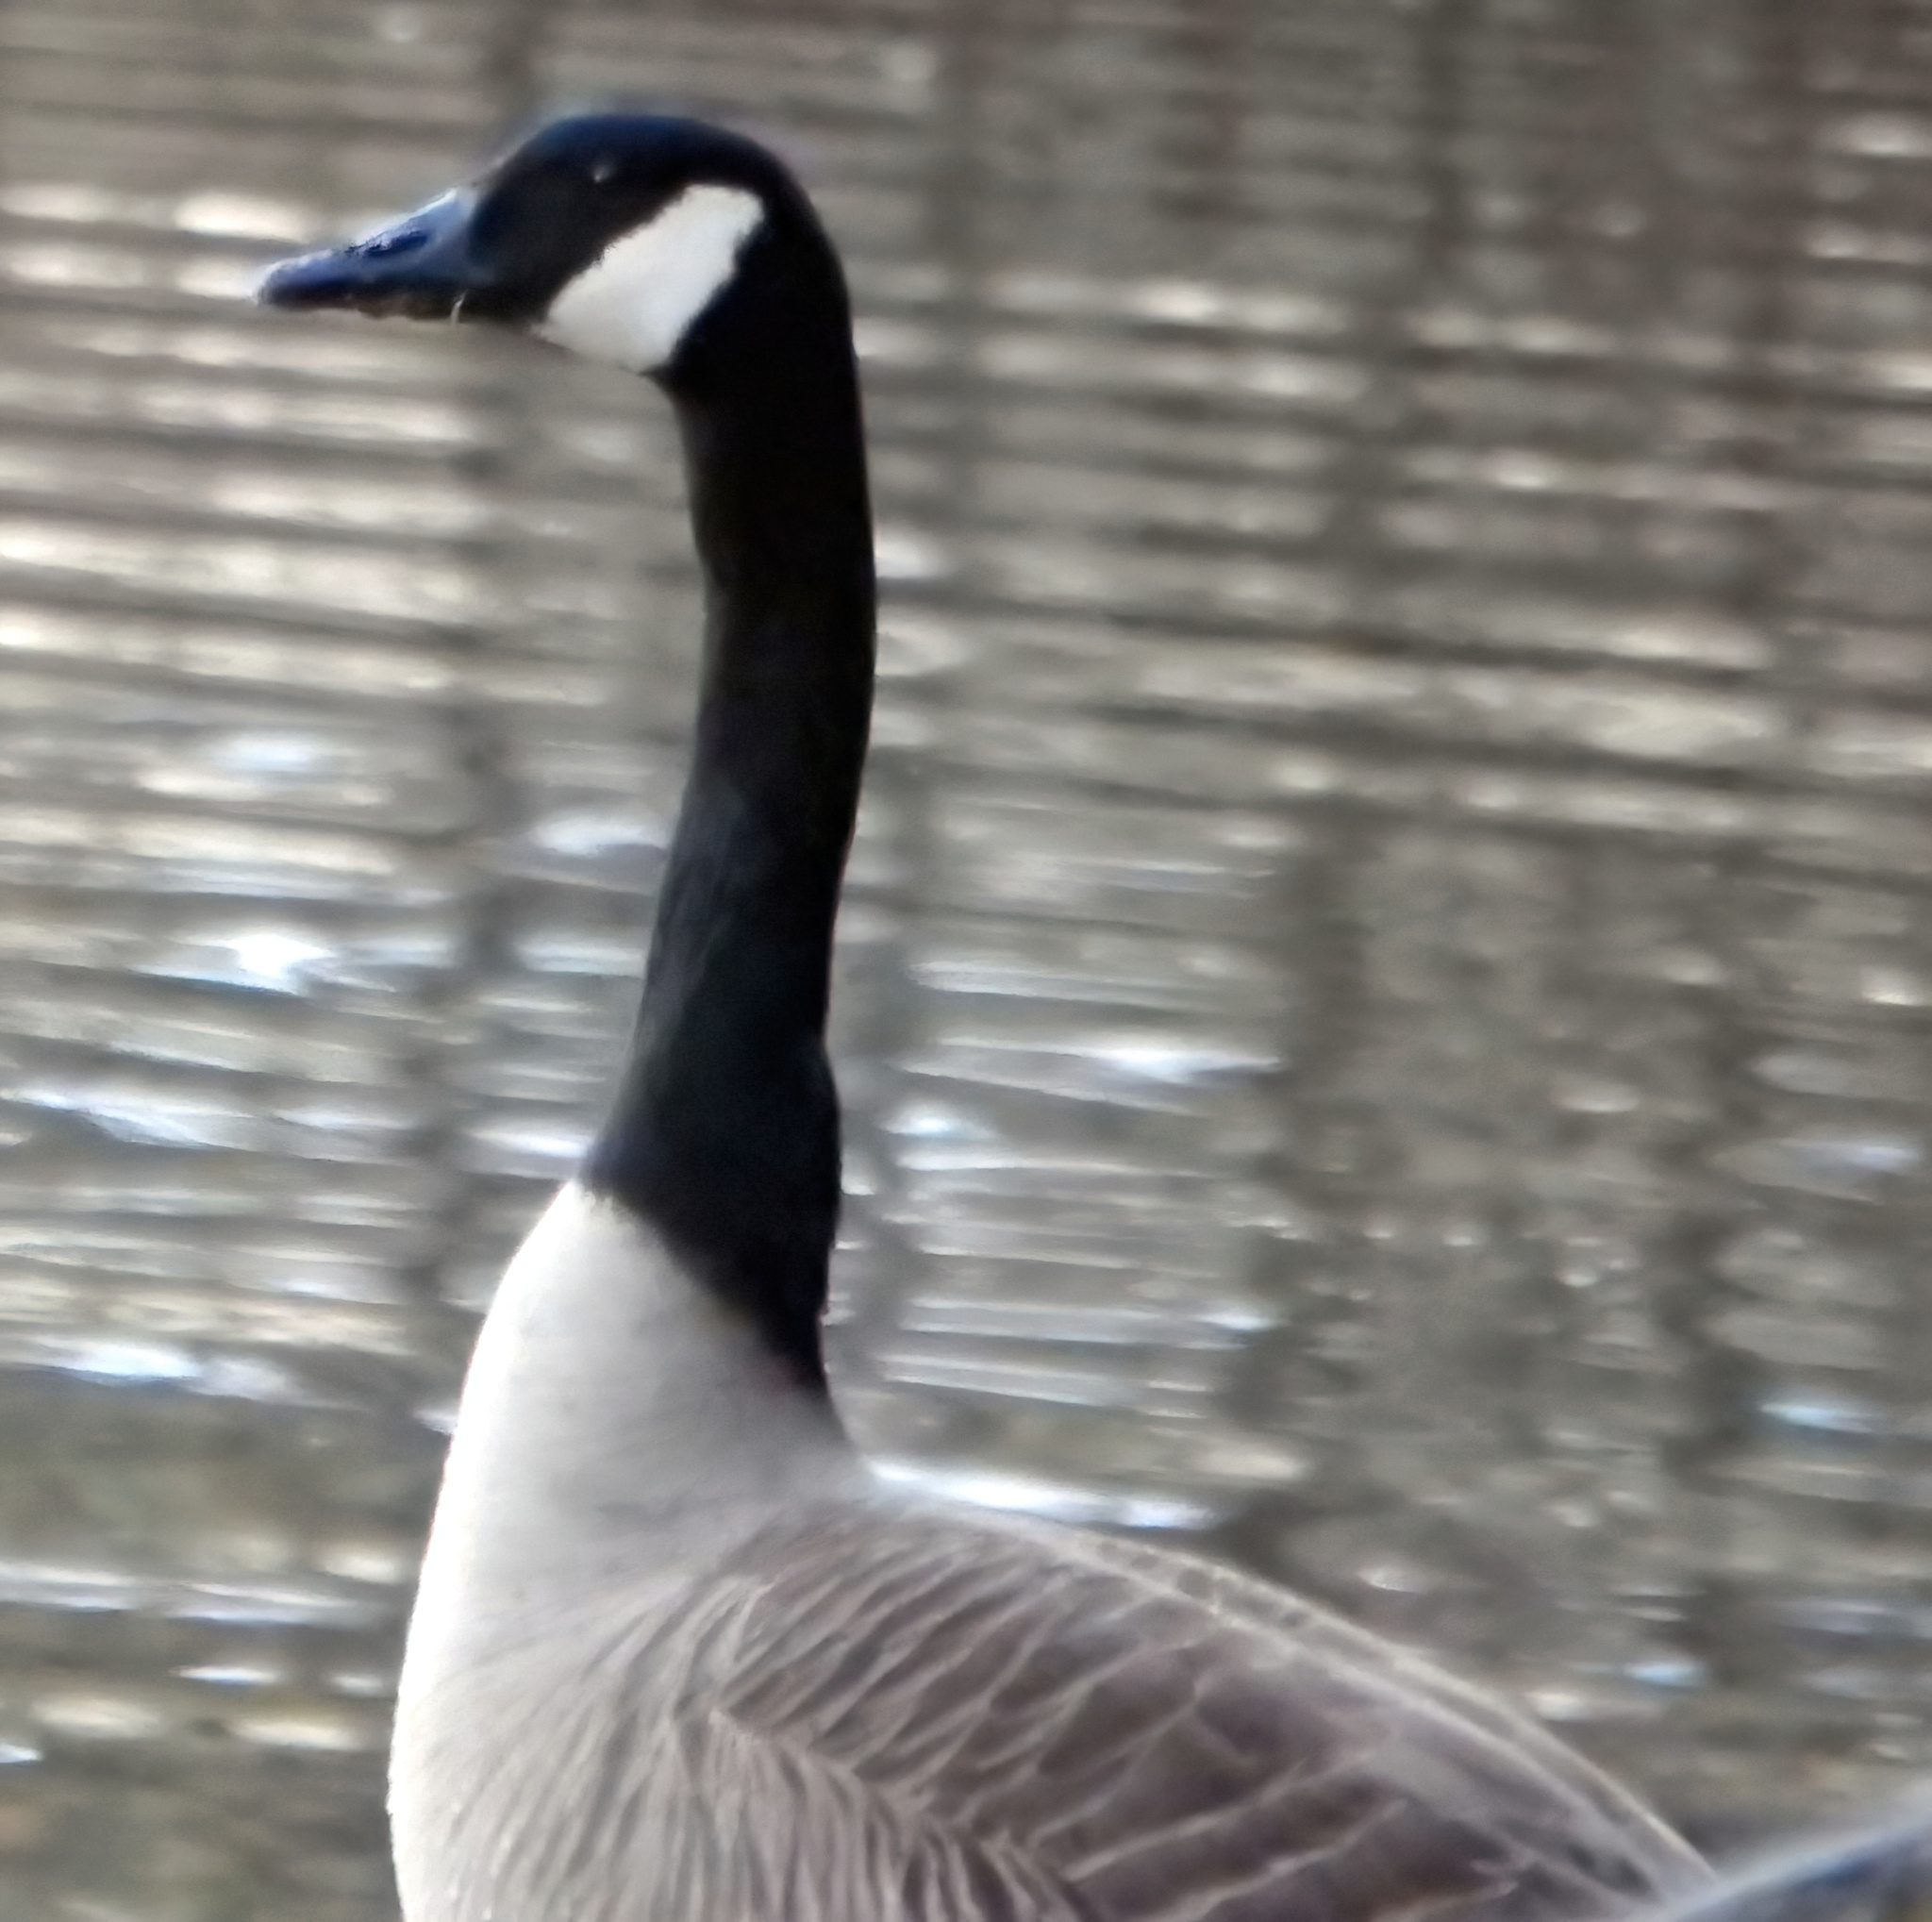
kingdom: Animalia
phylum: Chordata
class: Aves
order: Anseriformes
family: Anatidae
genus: Branta
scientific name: Branta canadensis
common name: Canada goose
